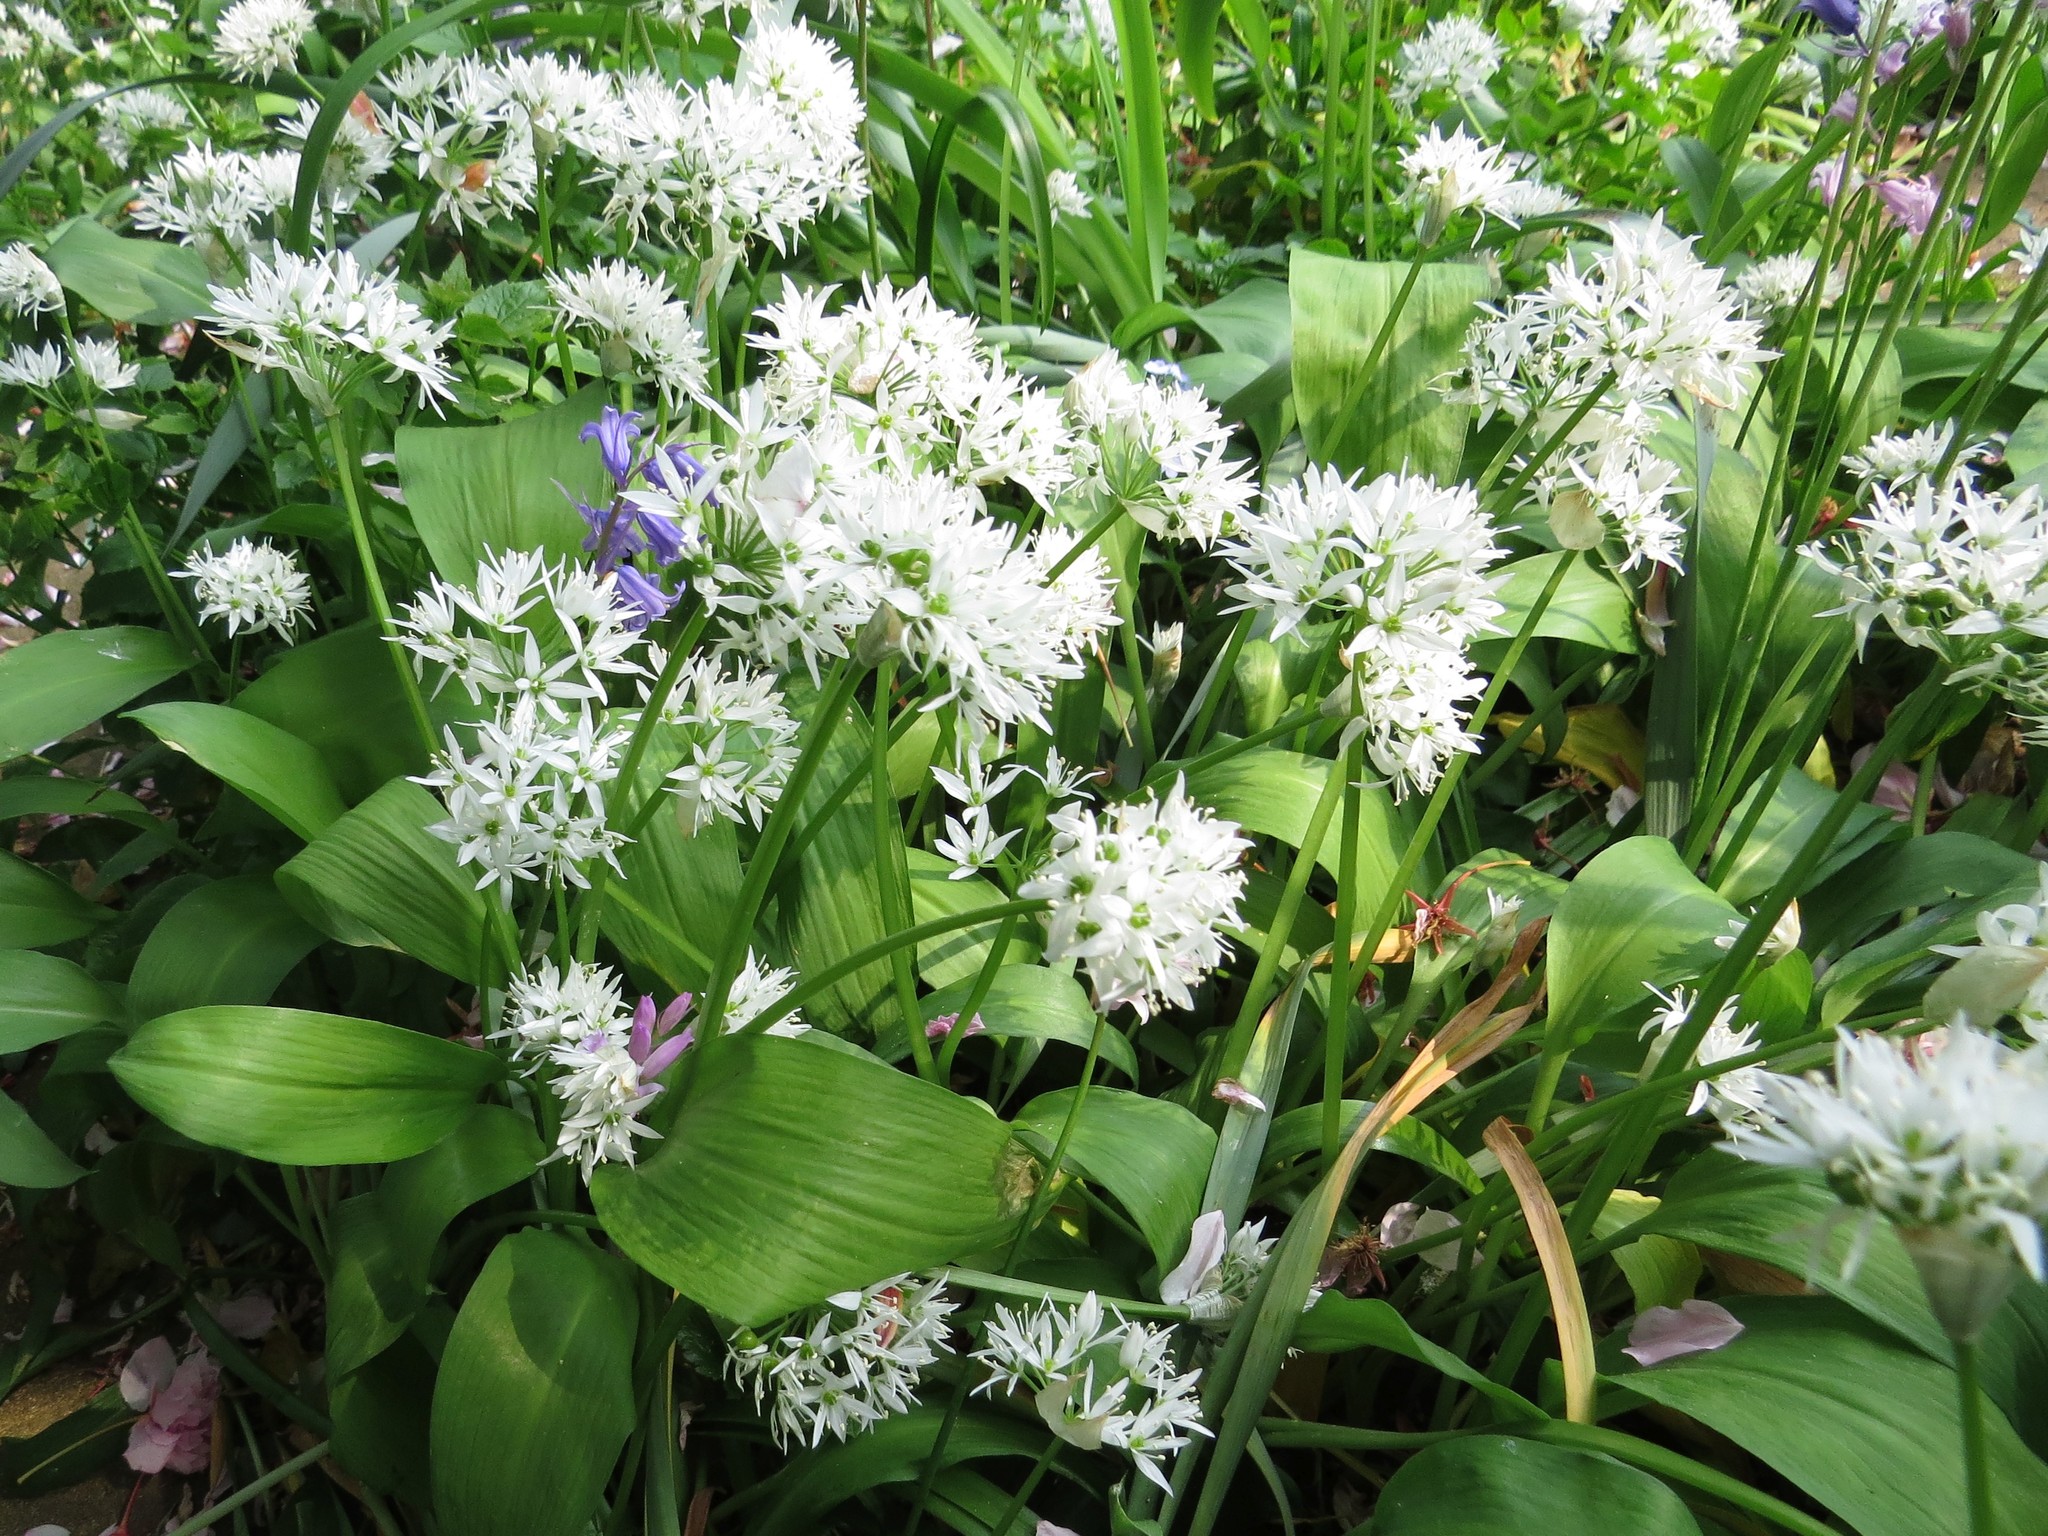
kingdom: Plantae
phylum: Tracheophyta
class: Liliopsida
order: Asparagales
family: Amaryllidaceae
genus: Allium
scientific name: Allium ursinum
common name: Ramsons
